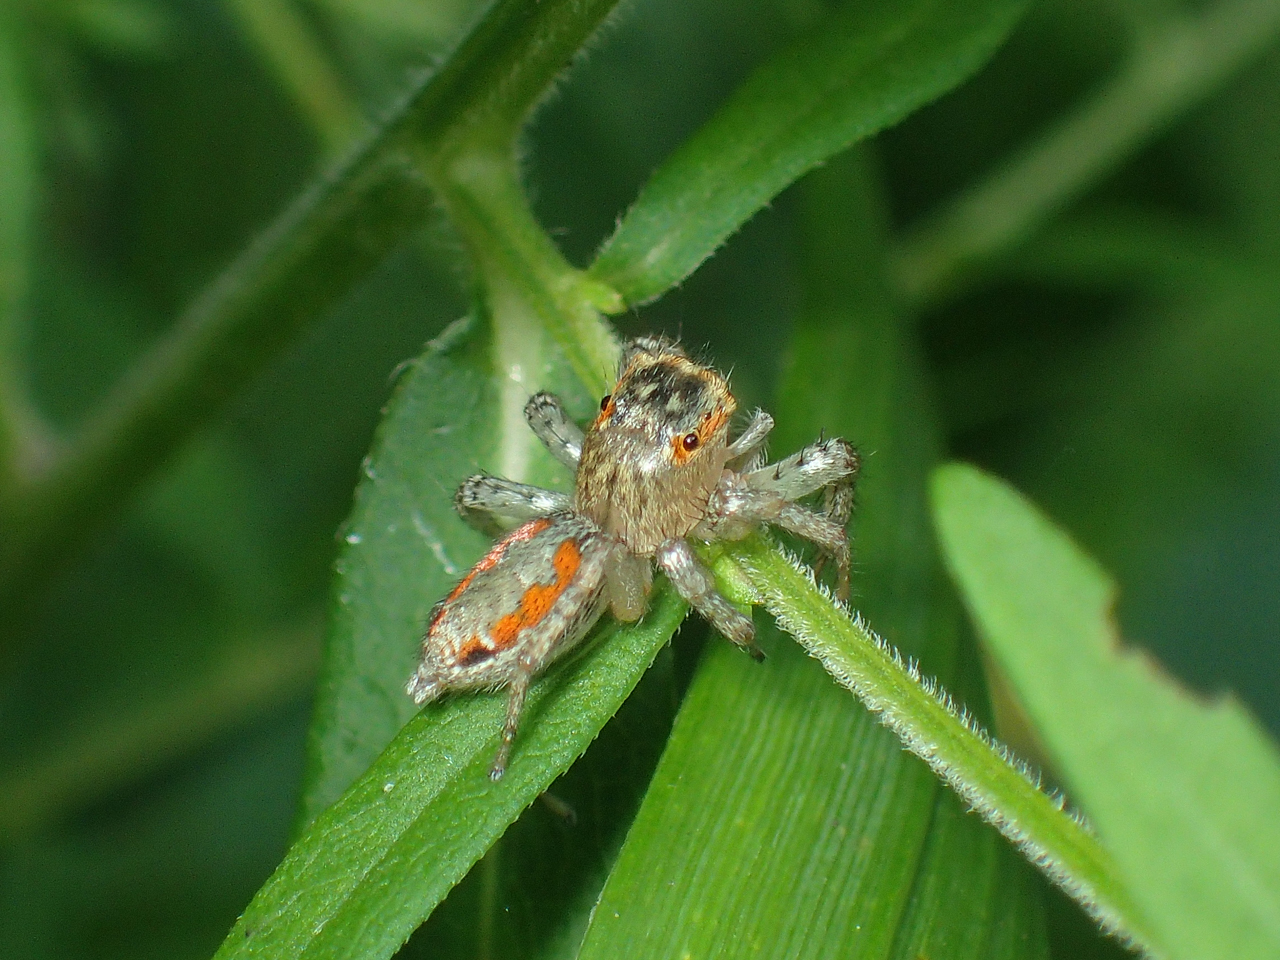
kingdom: Animalia
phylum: Arthropoda
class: Arachnida
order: Araneae
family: Salticidae
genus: Maevia
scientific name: Maevia inclemens
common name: Dimorphic jumper
